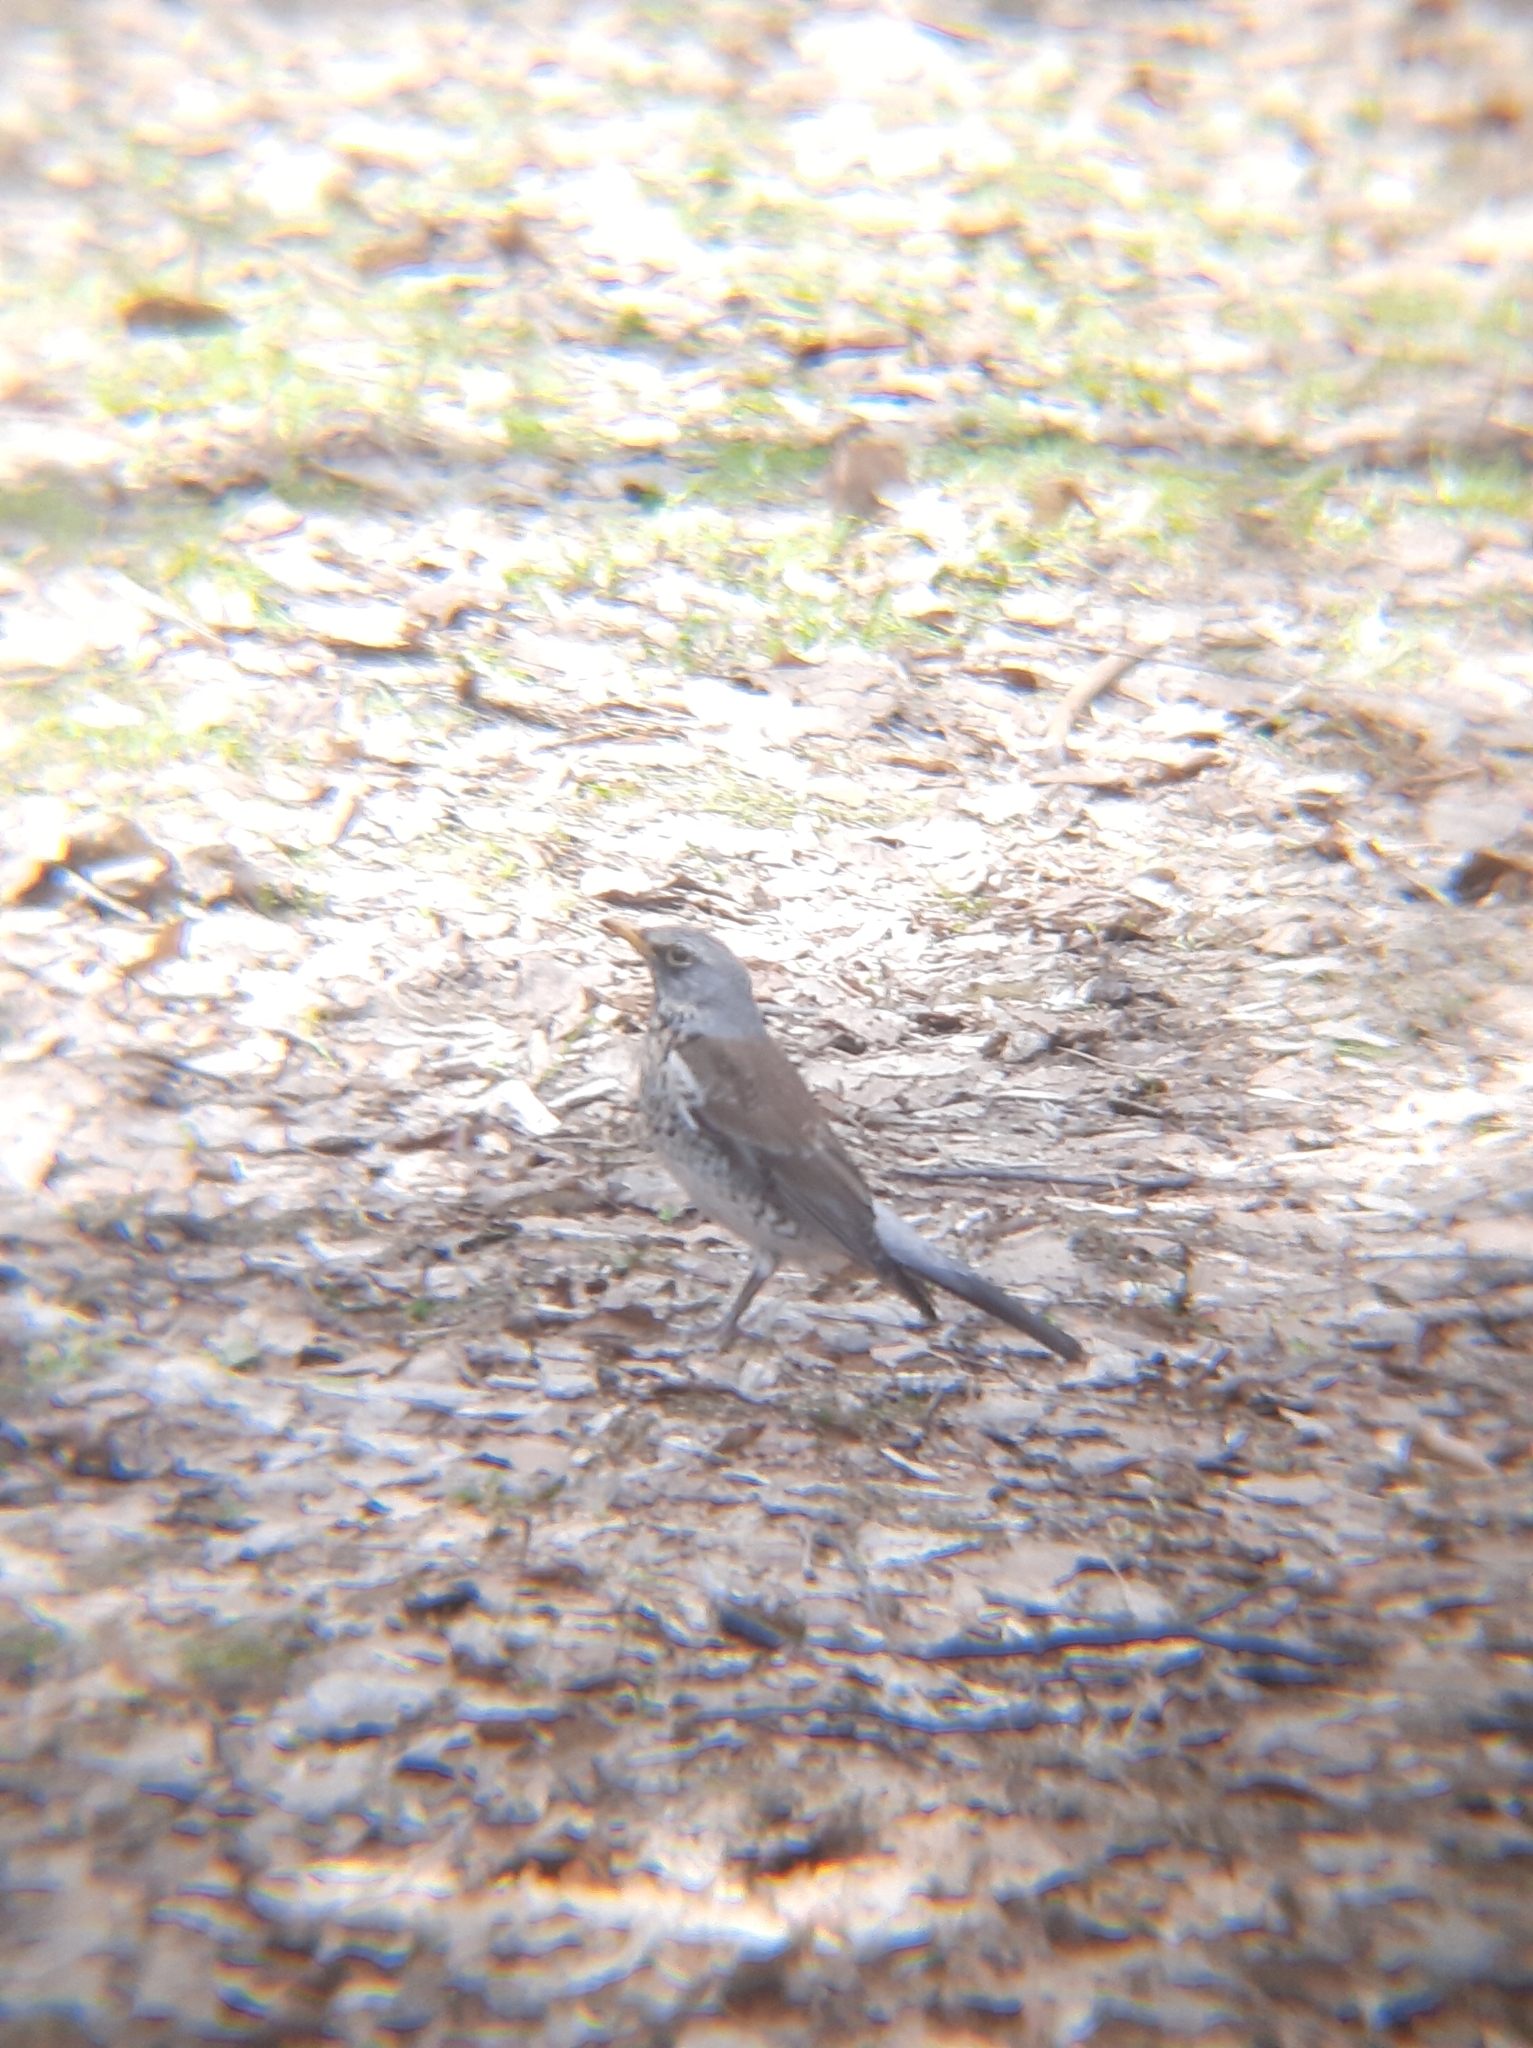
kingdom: Animalia
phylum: Chordata
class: Aves
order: Passeriformes
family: Turdidae
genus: Turdus
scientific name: Turdus pilaris
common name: Fieldfare
